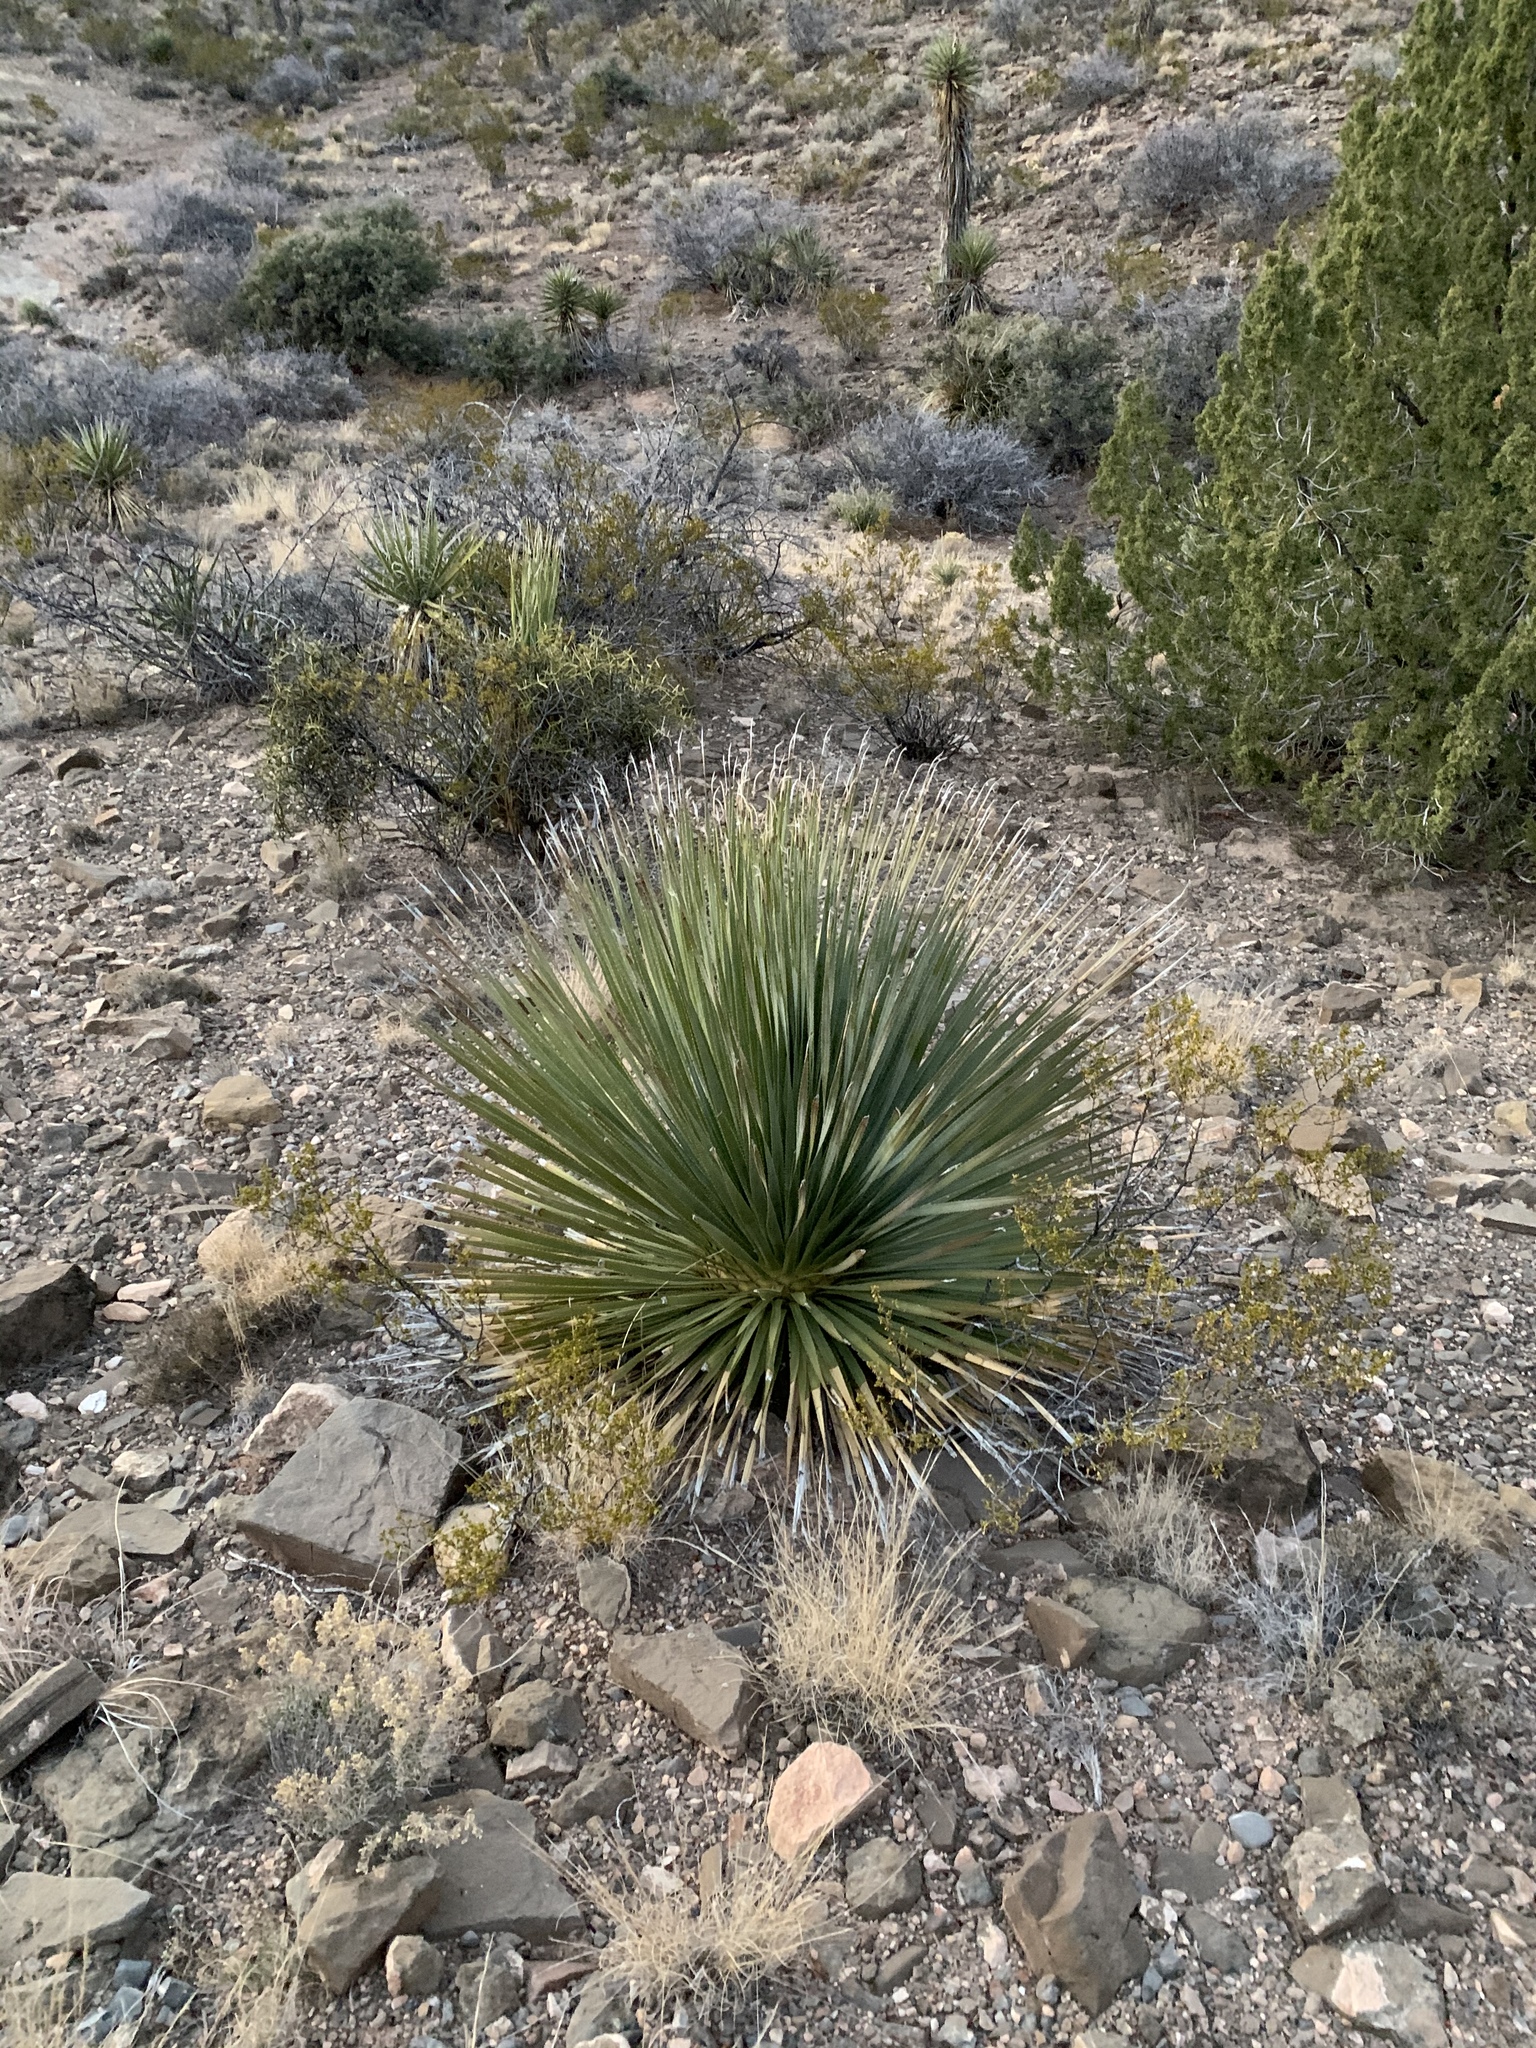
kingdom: Plantae
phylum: Tracheophyta
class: Liliopsida
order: Asparagales
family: Asparagaceae
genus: Dasylirion
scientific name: Dasylirion wheeleri
